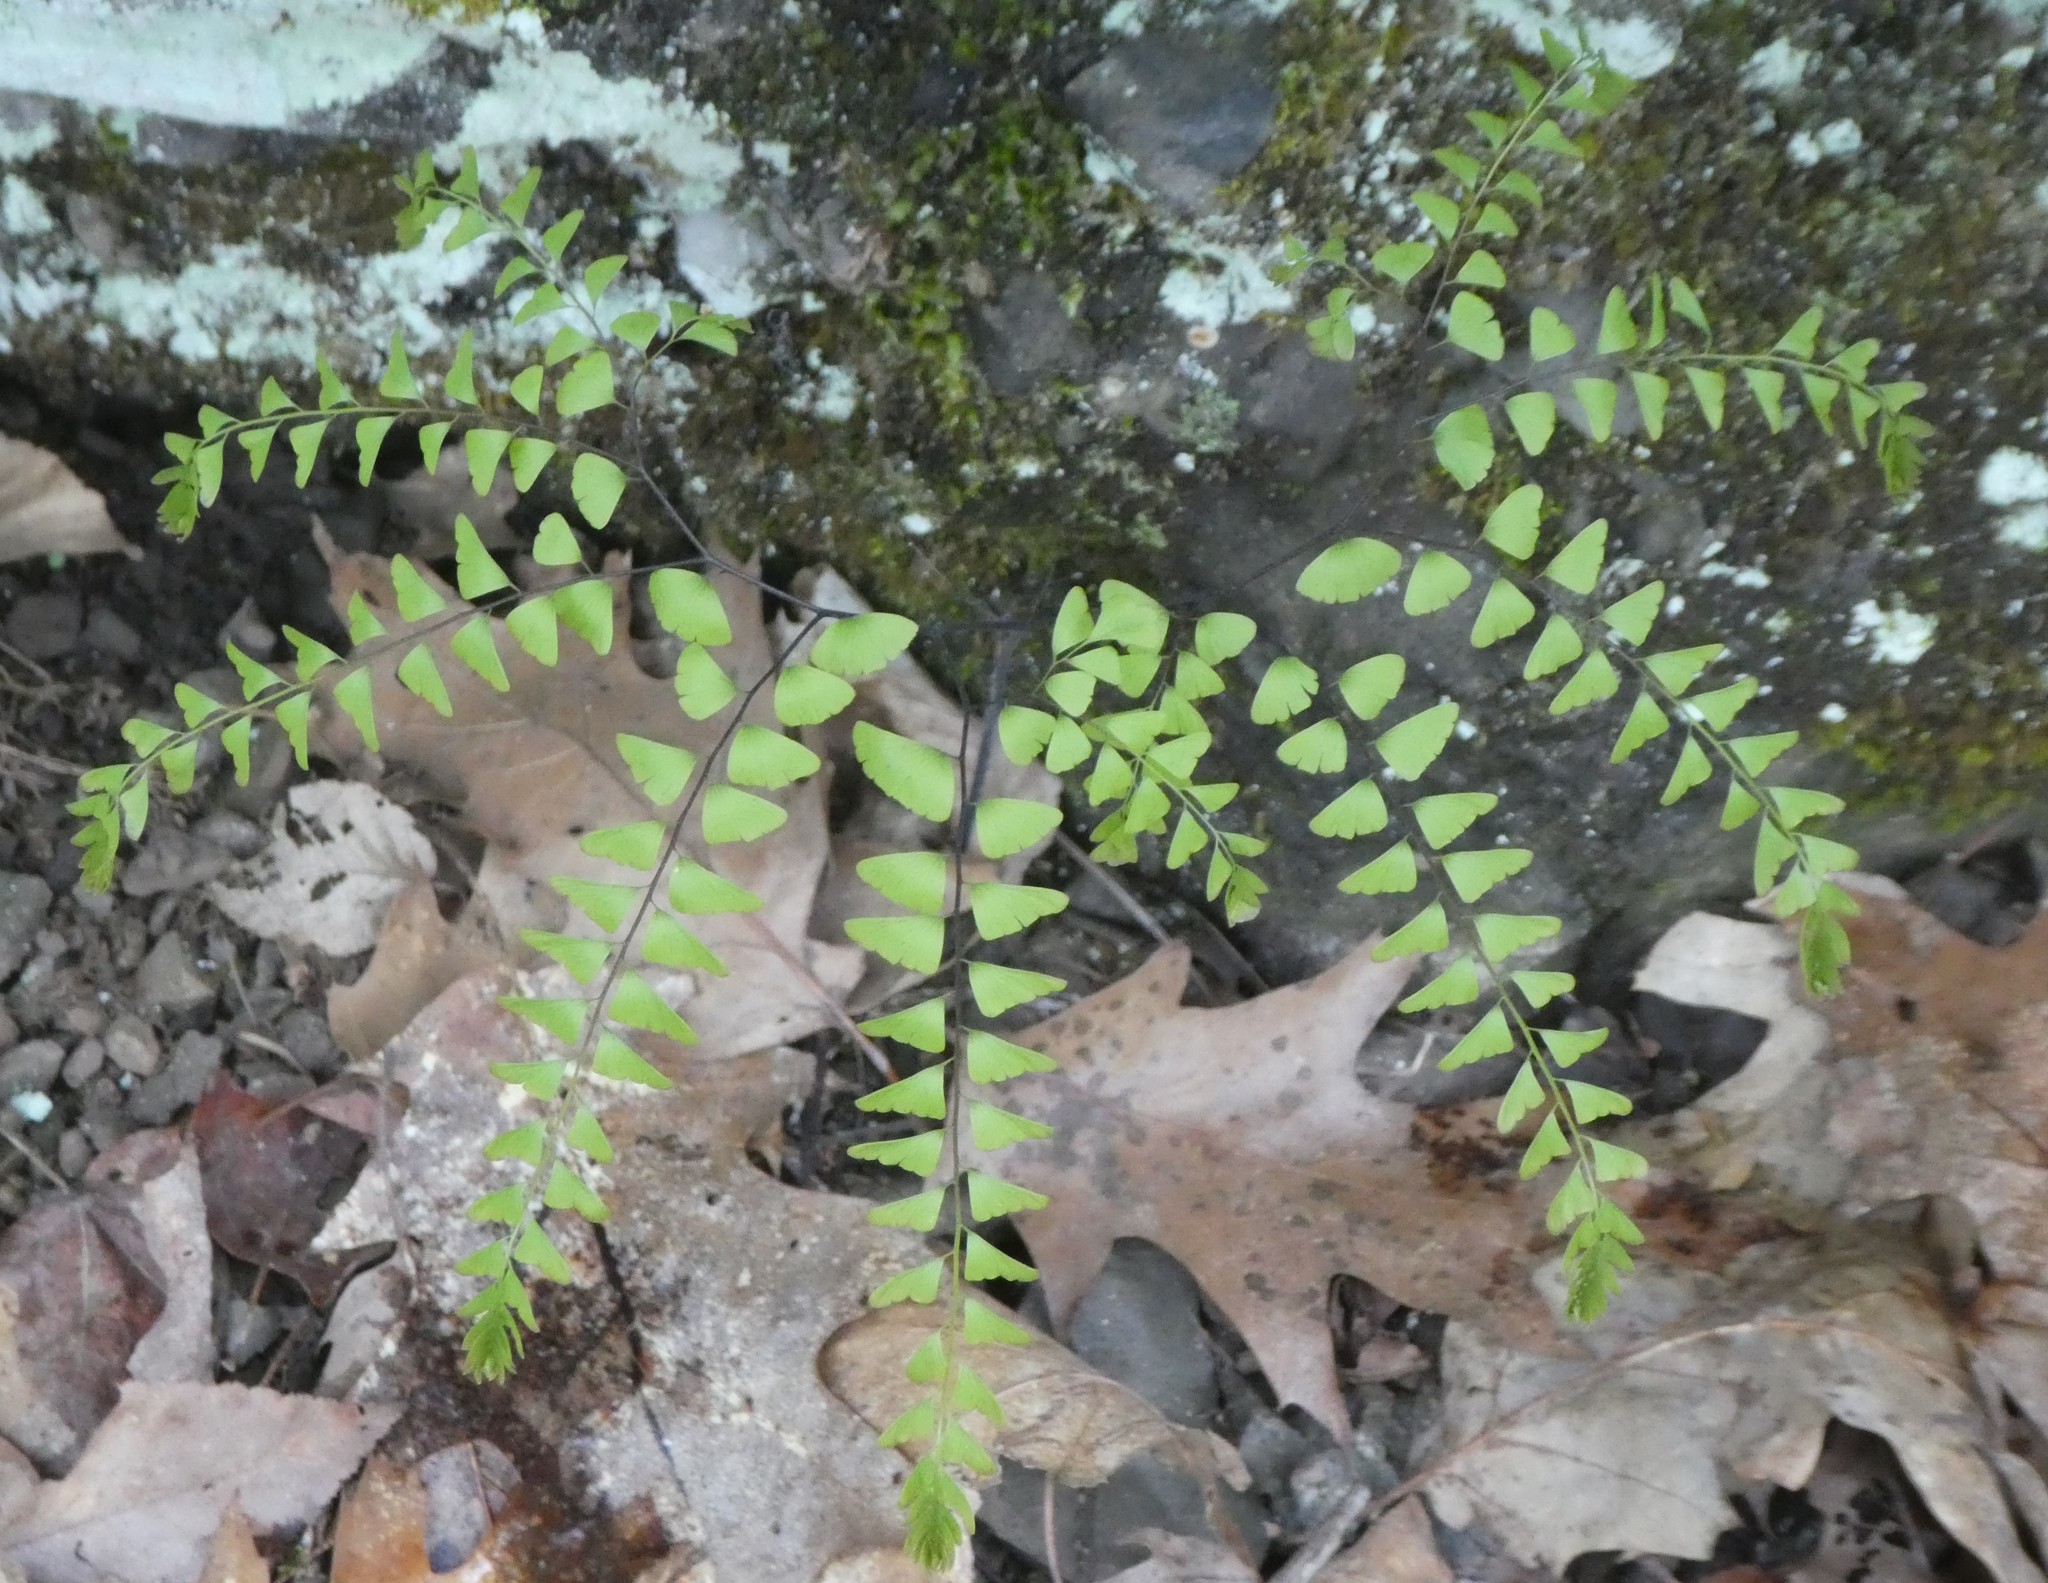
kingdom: Plantae
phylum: Tracheophyta
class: Polypodiopsida
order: Polypodiales
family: Pteridaceae
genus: Adiantum
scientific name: Adiantum pedatum
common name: Five-finger fern
